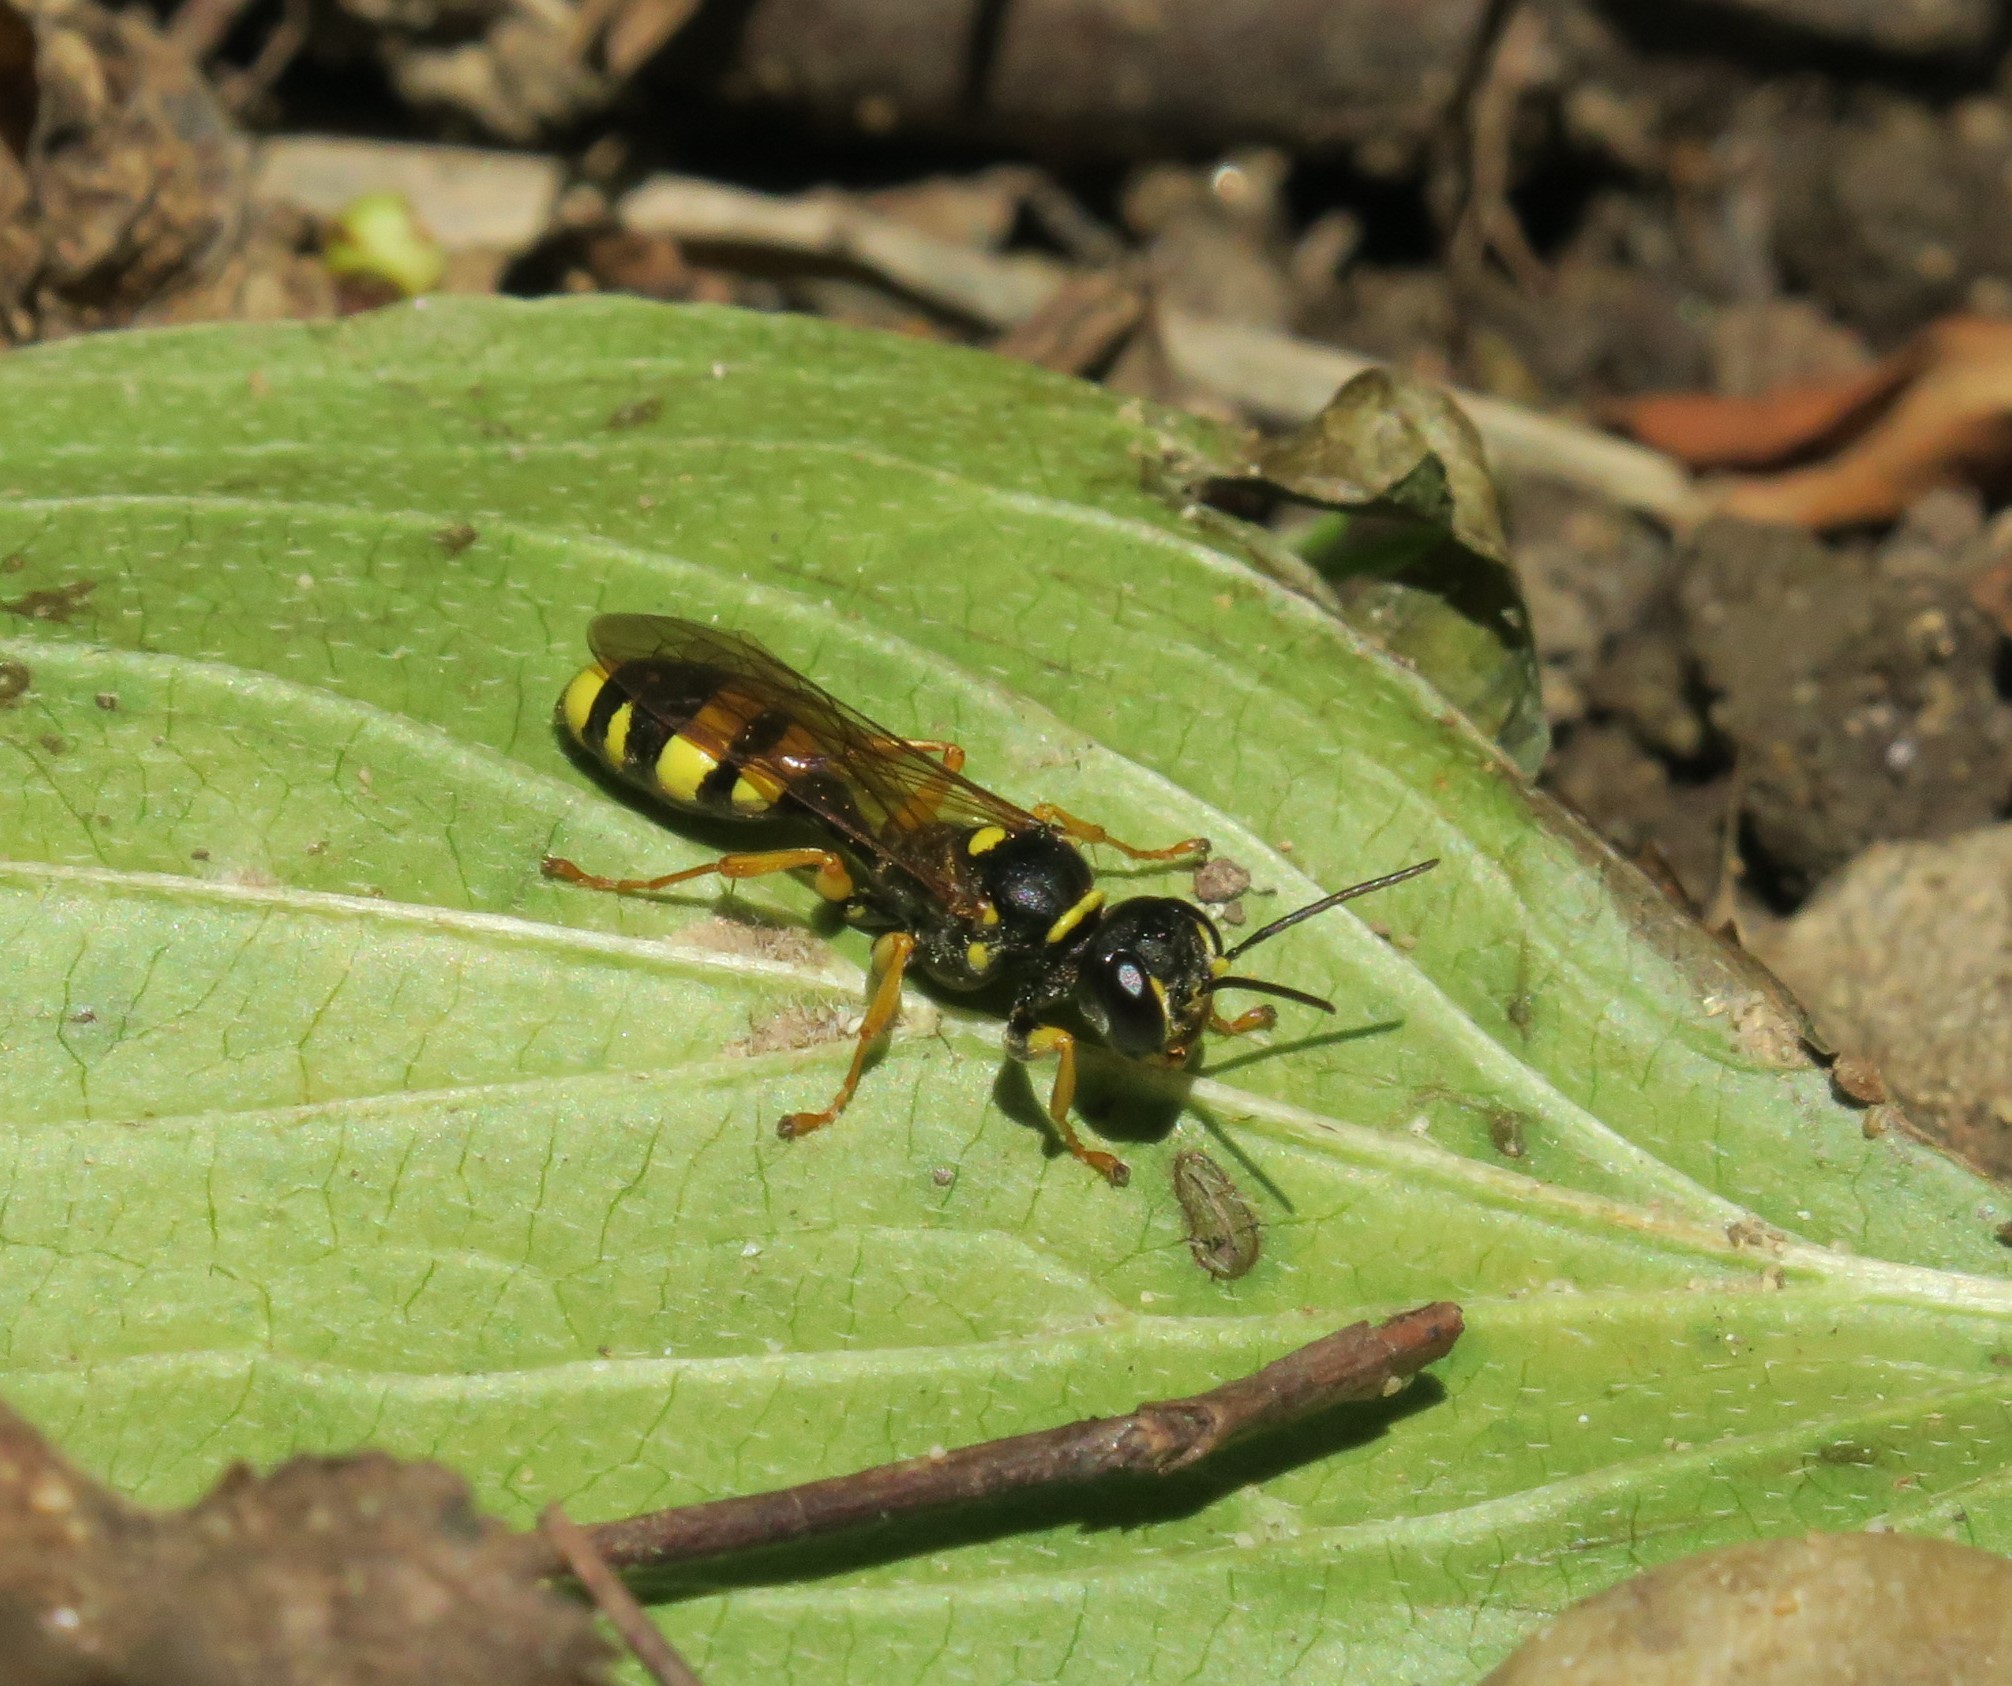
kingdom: Animalia
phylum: Arthropoda
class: Insecta
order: Hymenoptera
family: Crabronidae
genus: Mellinus
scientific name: Mellinus arvensis
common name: Field digger wasp
